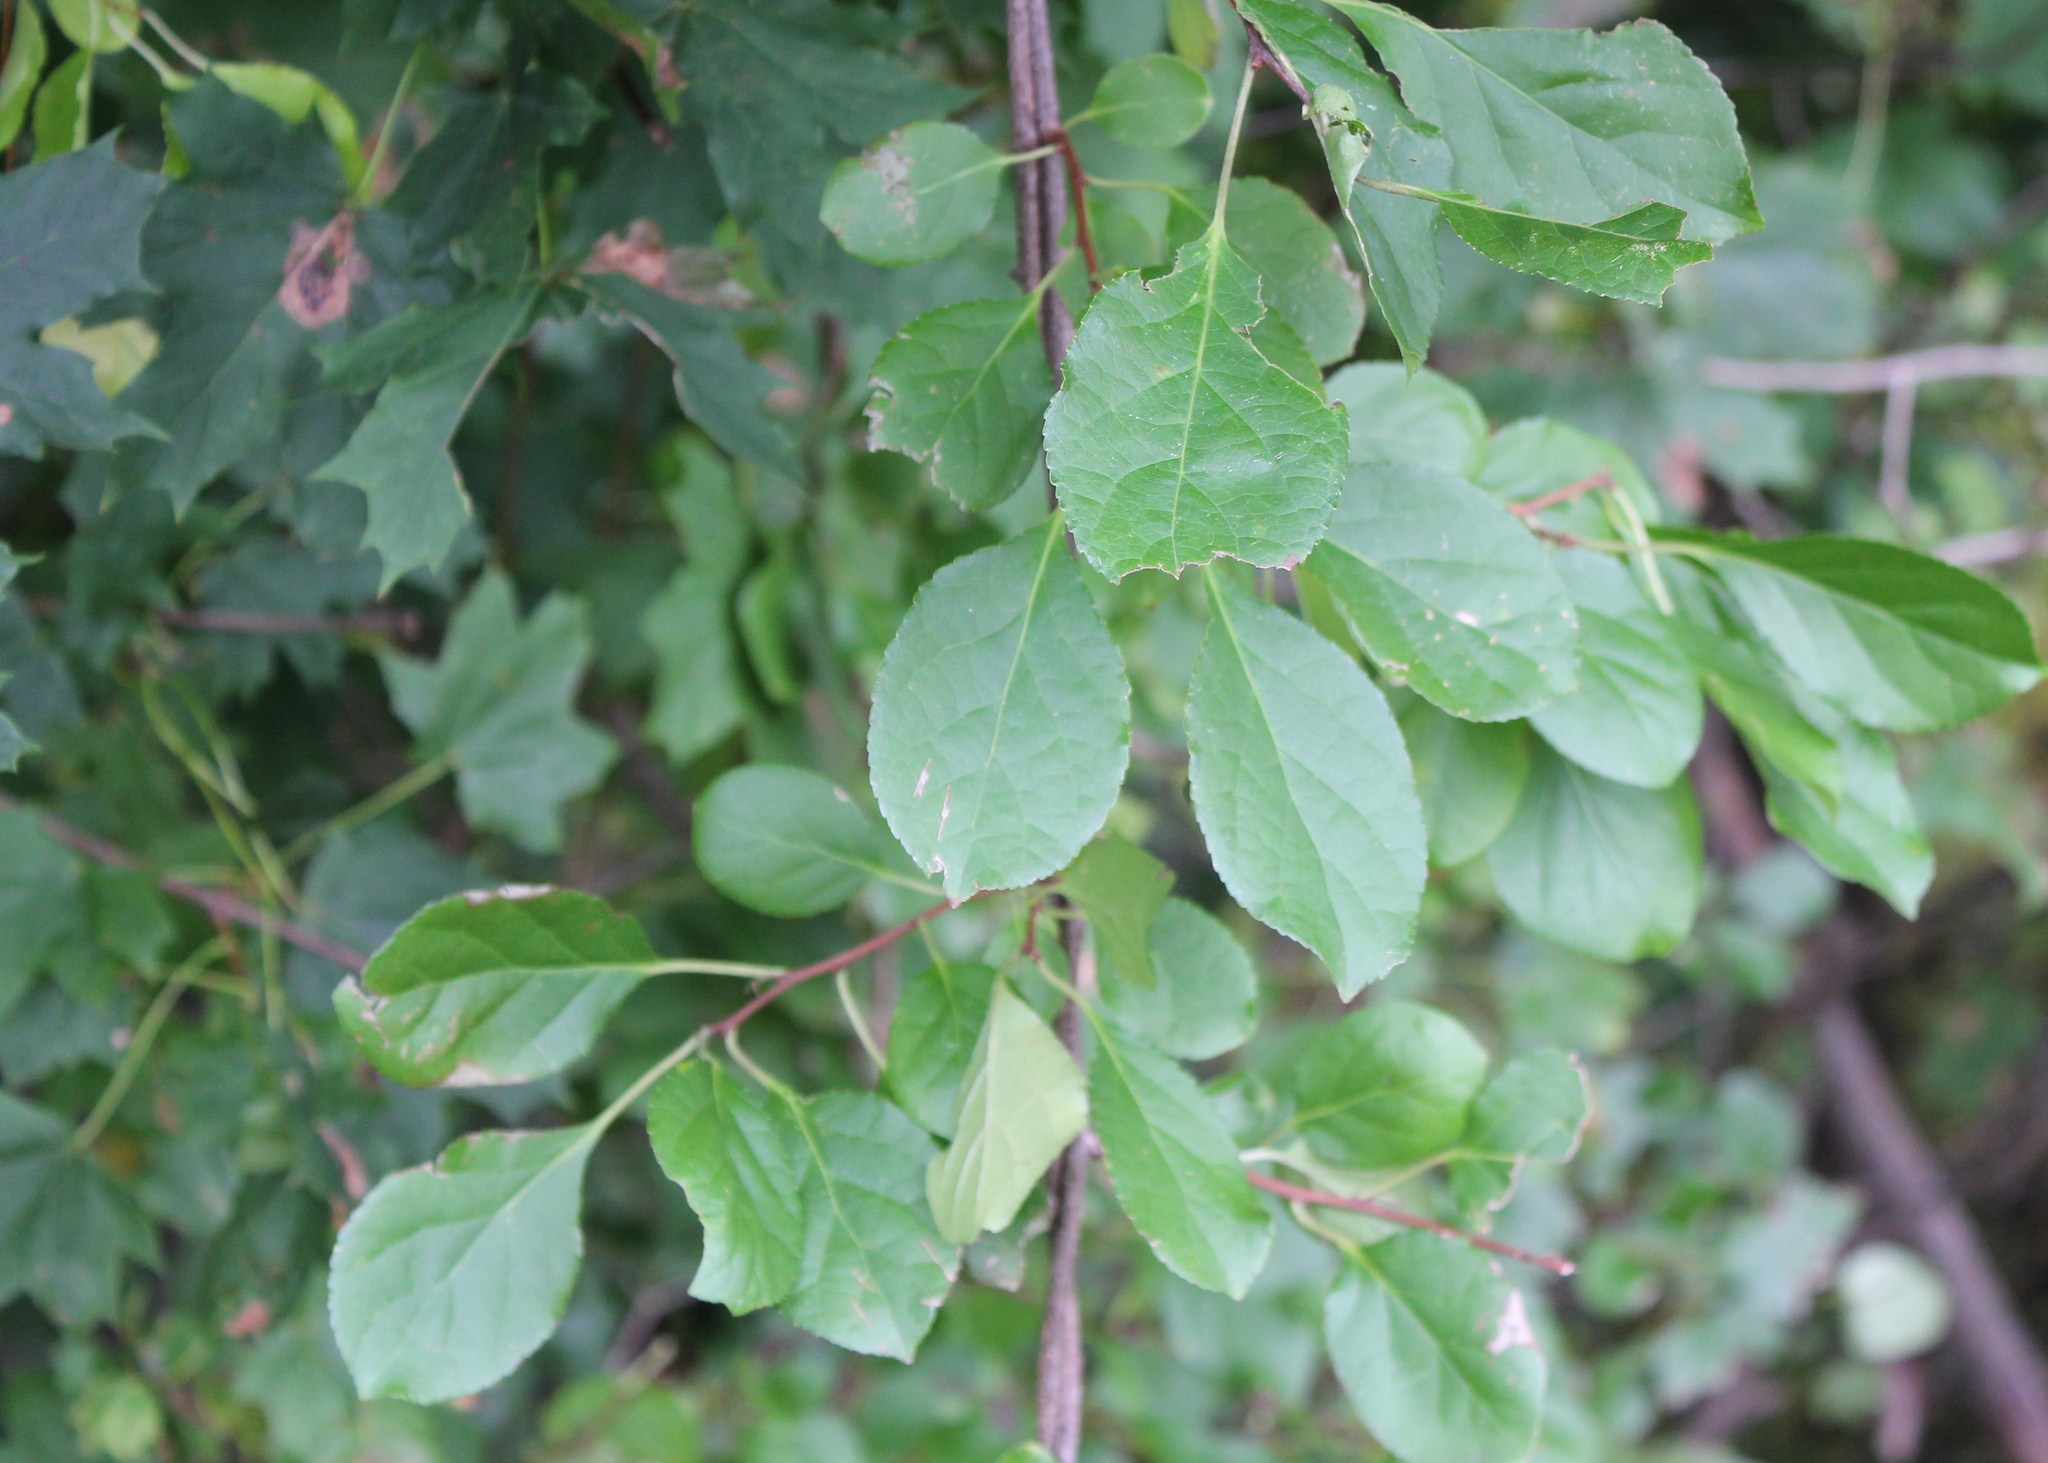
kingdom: Plantae
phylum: Tracheophyta
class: Magnoliopsida
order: Celastrales
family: Celastraceae
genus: Celastrus
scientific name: Celastrus orbiculatus
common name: Oriental bittersweet
